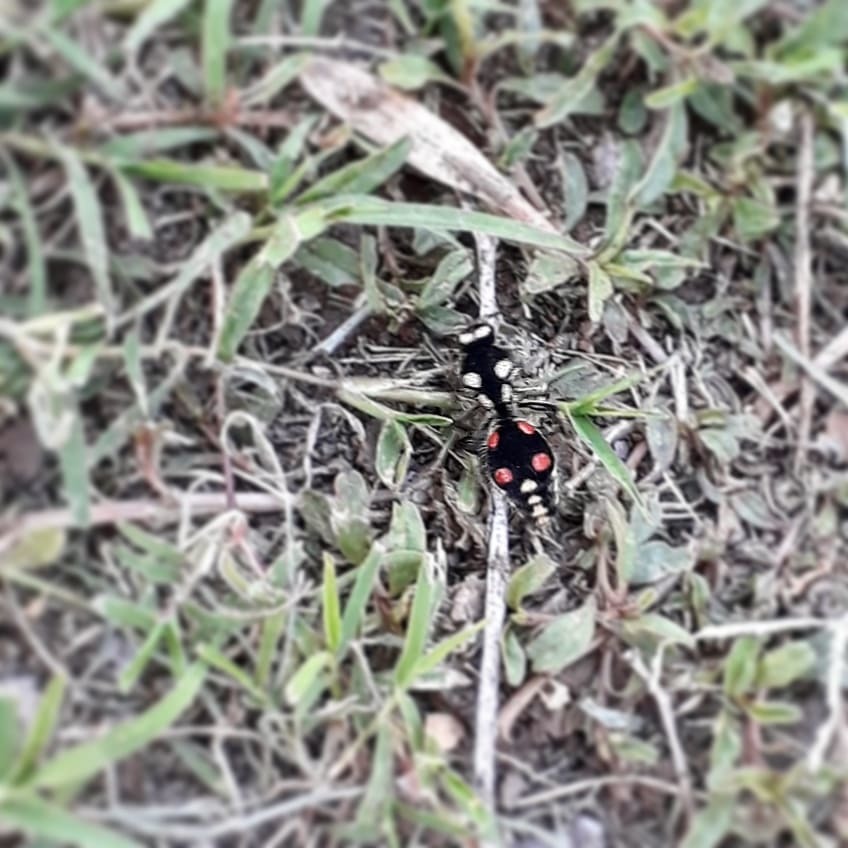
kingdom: Animalia
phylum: Arthropoda
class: Insecta
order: Hymenoptera
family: Mutillidae
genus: Traumatomutilla
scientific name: Traumatomutilla
